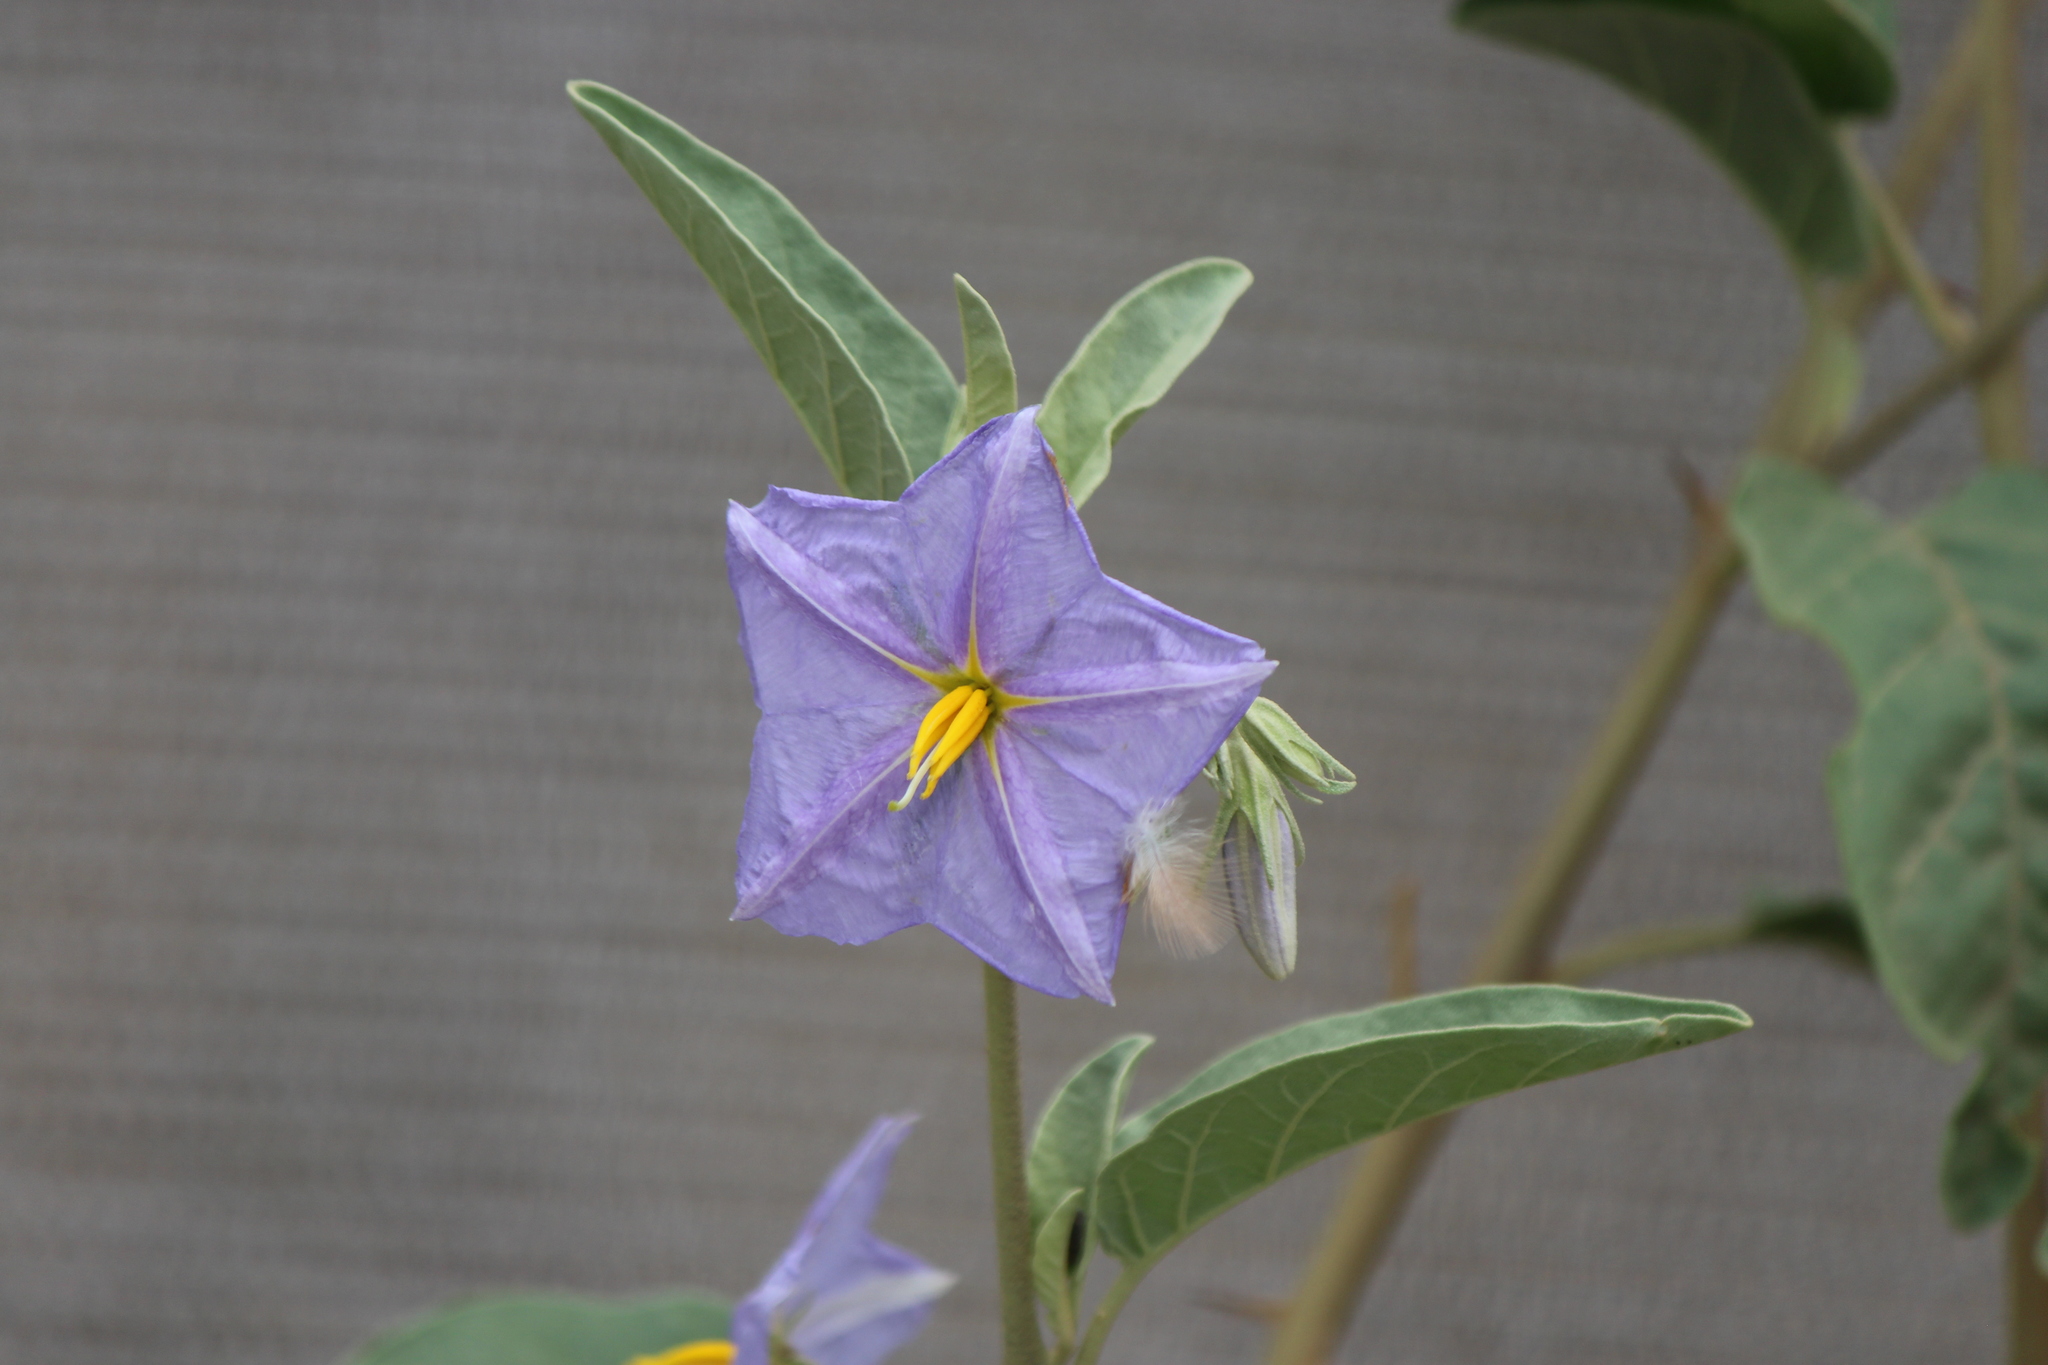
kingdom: Plantae
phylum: Tracheophyta
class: Magnoliopsida
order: Solanales
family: Solanaceae
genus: Solanum
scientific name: Solanum hindsianum
